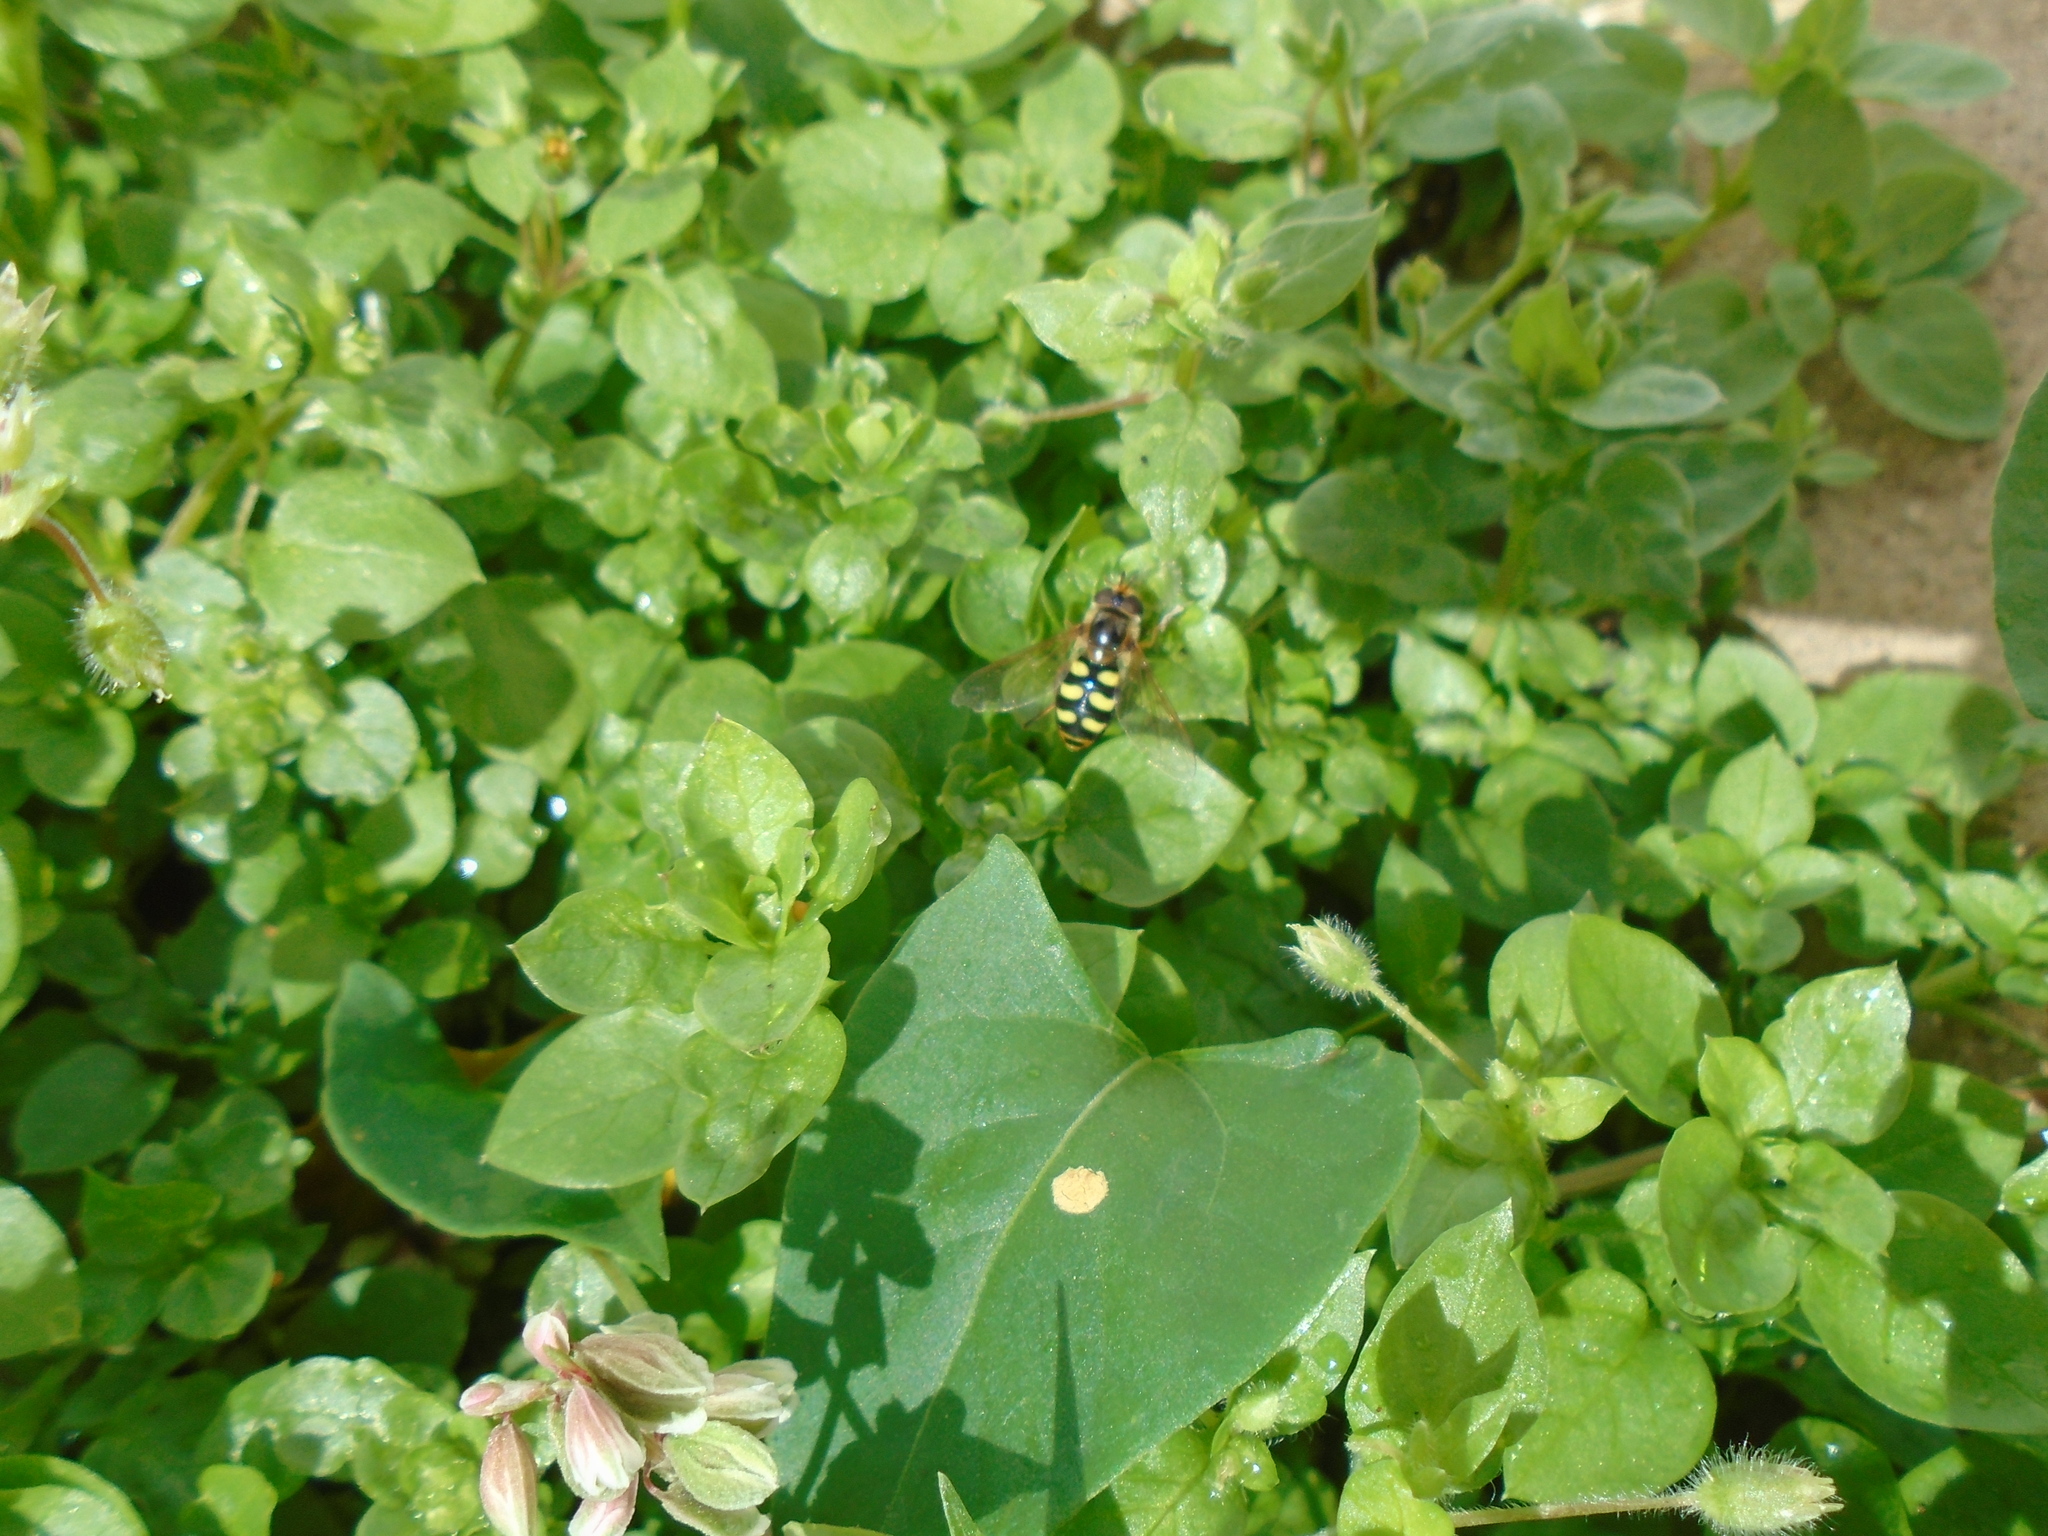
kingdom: Animalia
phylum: Arthropoda
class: Insecta
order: Diptera
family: Syrphidae
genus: Eupeodes
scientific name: Eupeodes luniger
